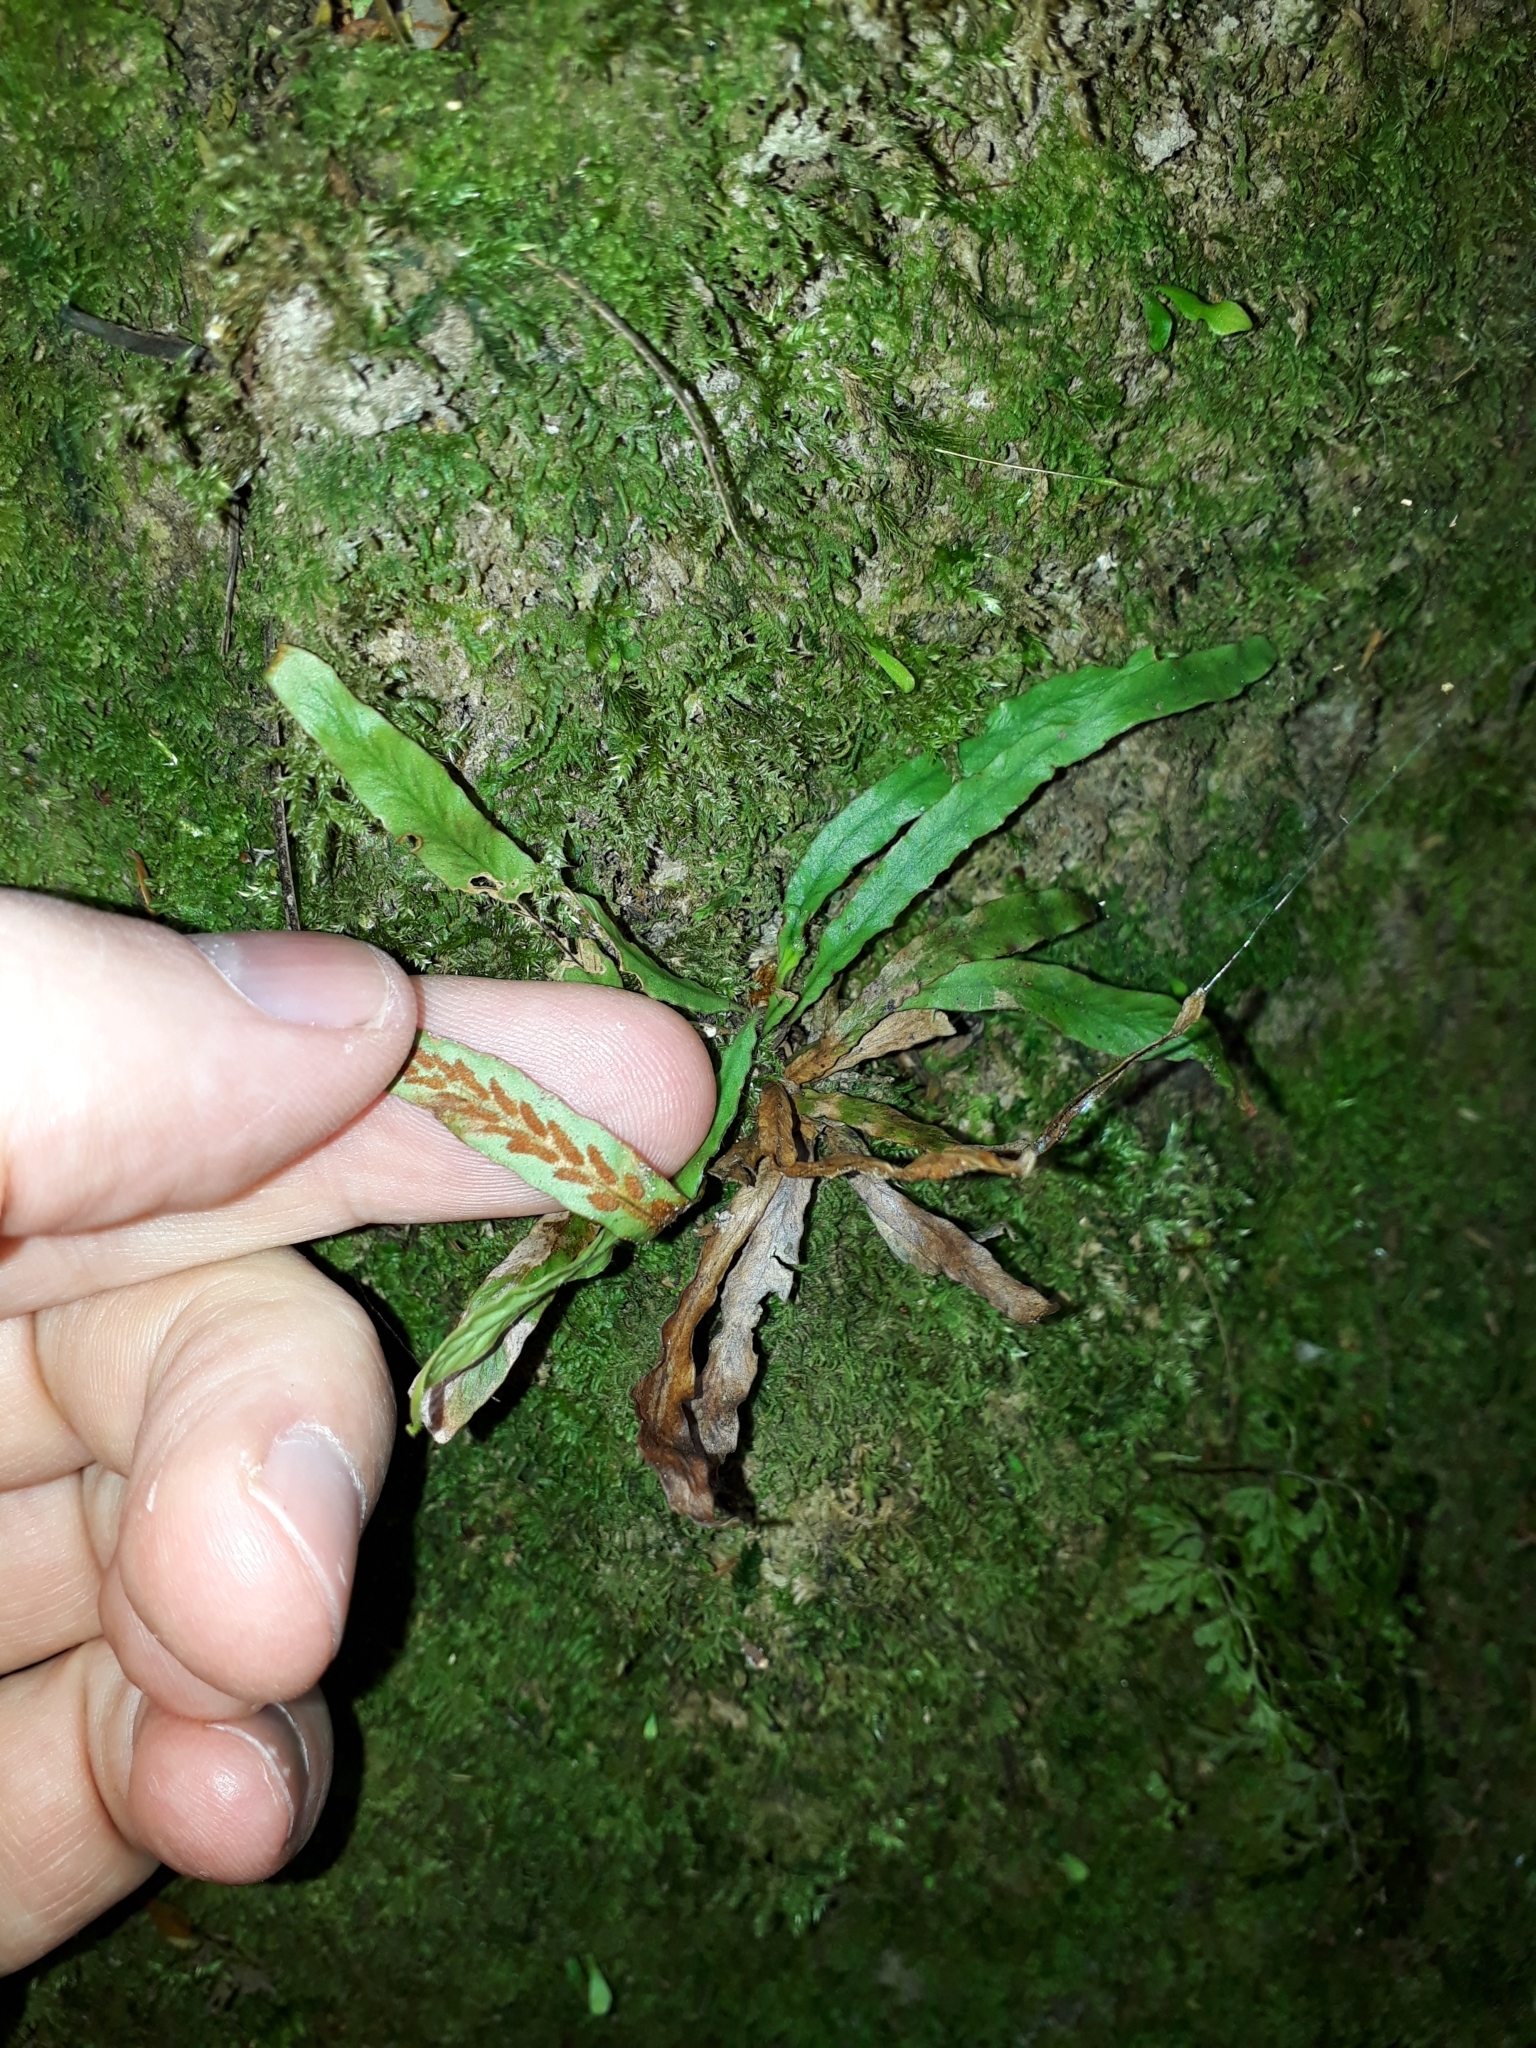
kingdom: Plantae
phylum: Tracheophyta
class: Polypodiopsida
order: Polypodiales
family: Polypodiaceae
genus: Notogrammitis
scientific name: Notogrammitis billardierei
